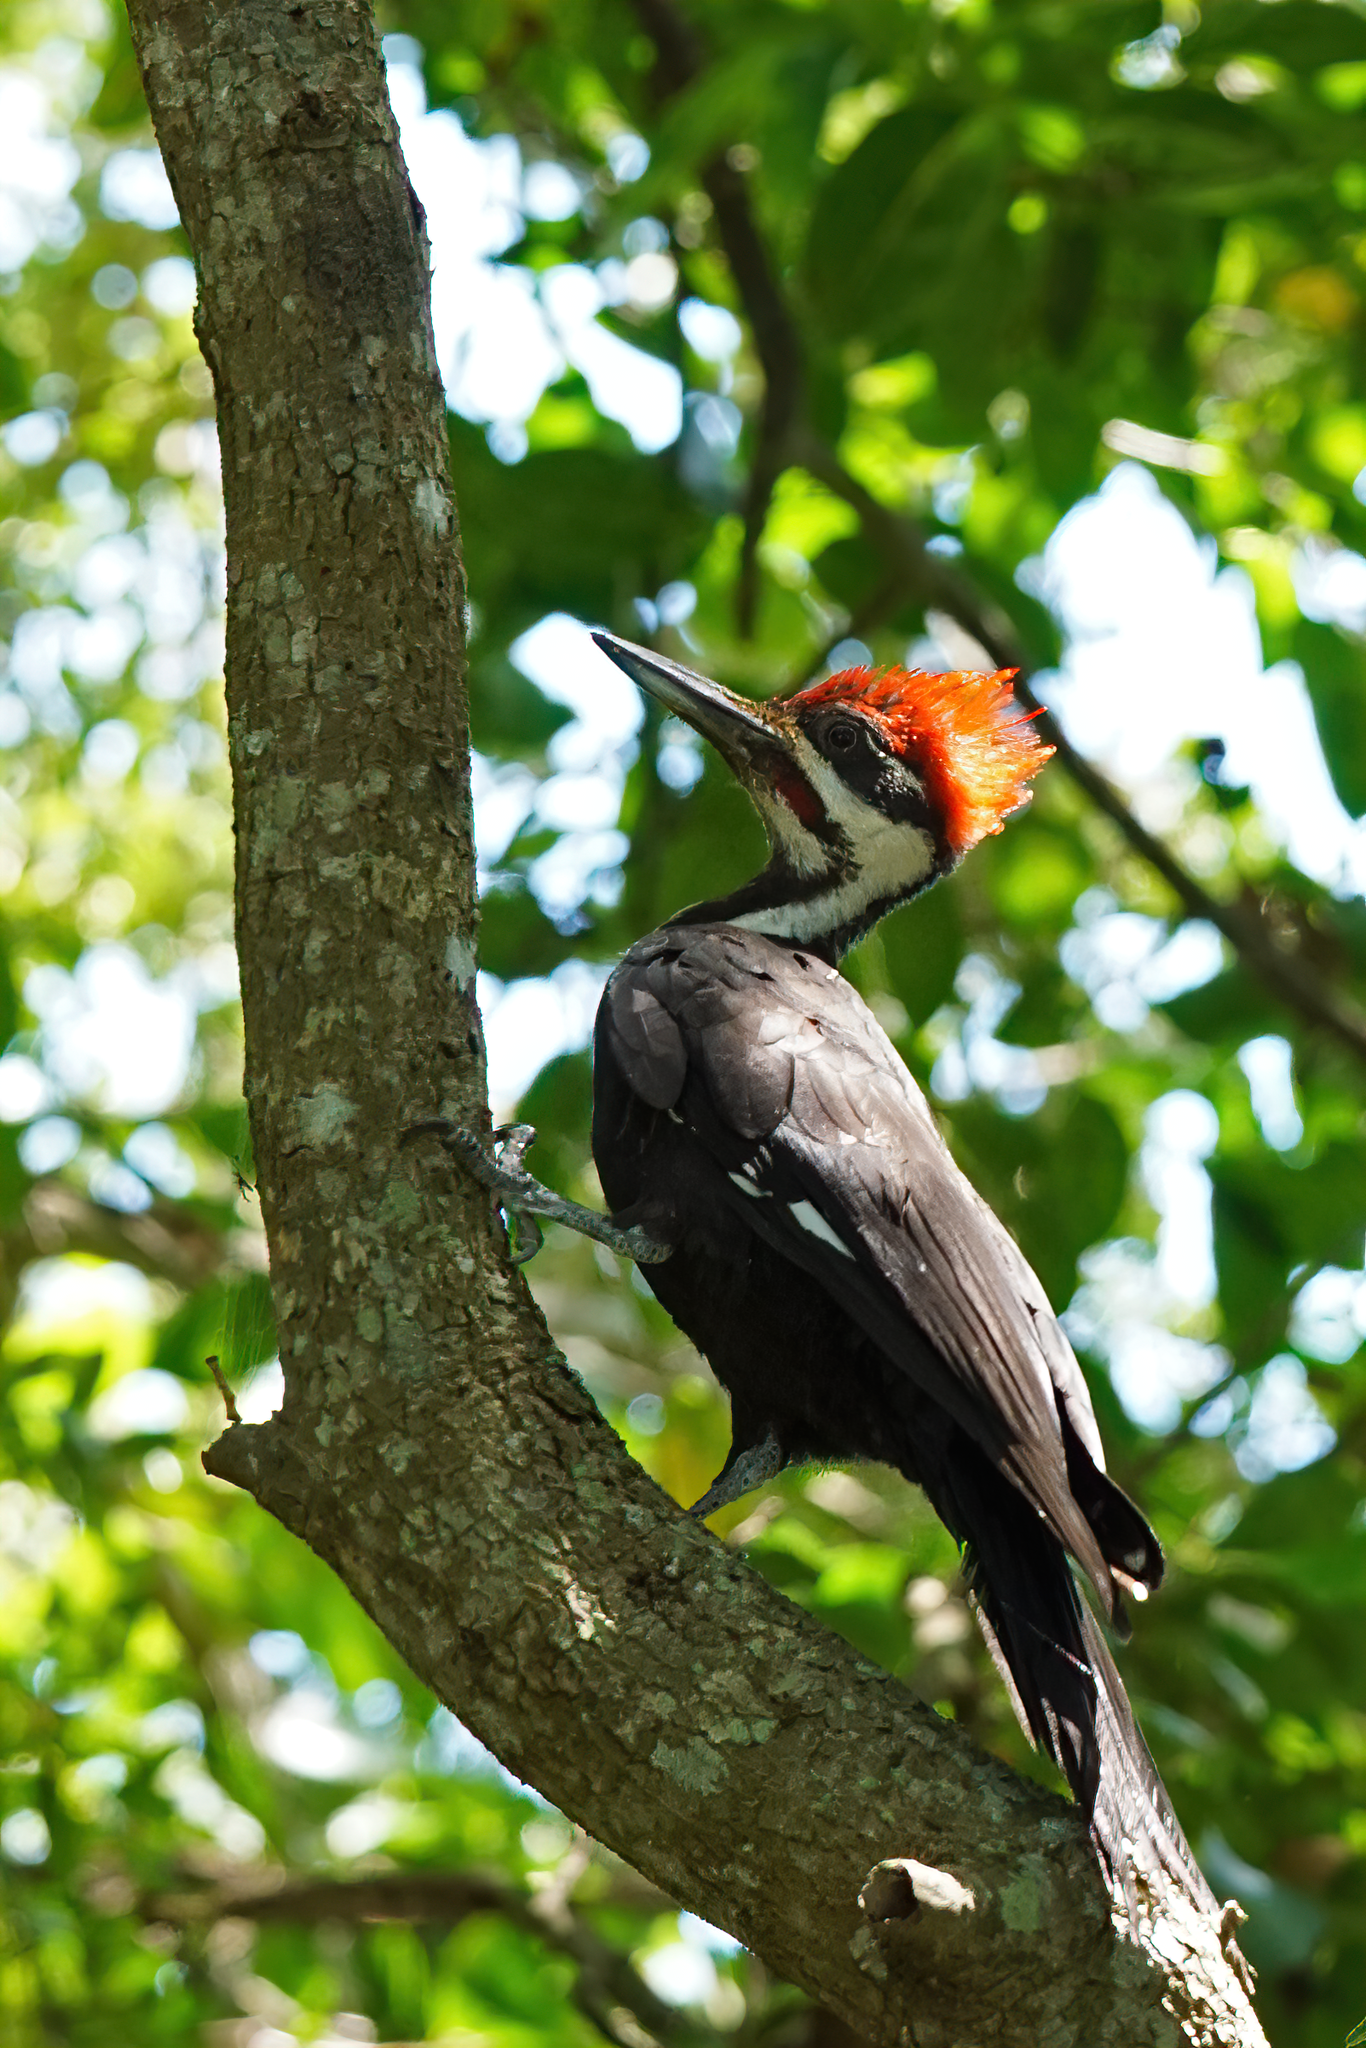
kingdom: Animalia
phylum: Chordata
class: Aves
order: Piciformes
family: Picidae
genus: Dryocopus
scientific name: Dryocopus pileatus
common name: Pileated woodpecker
